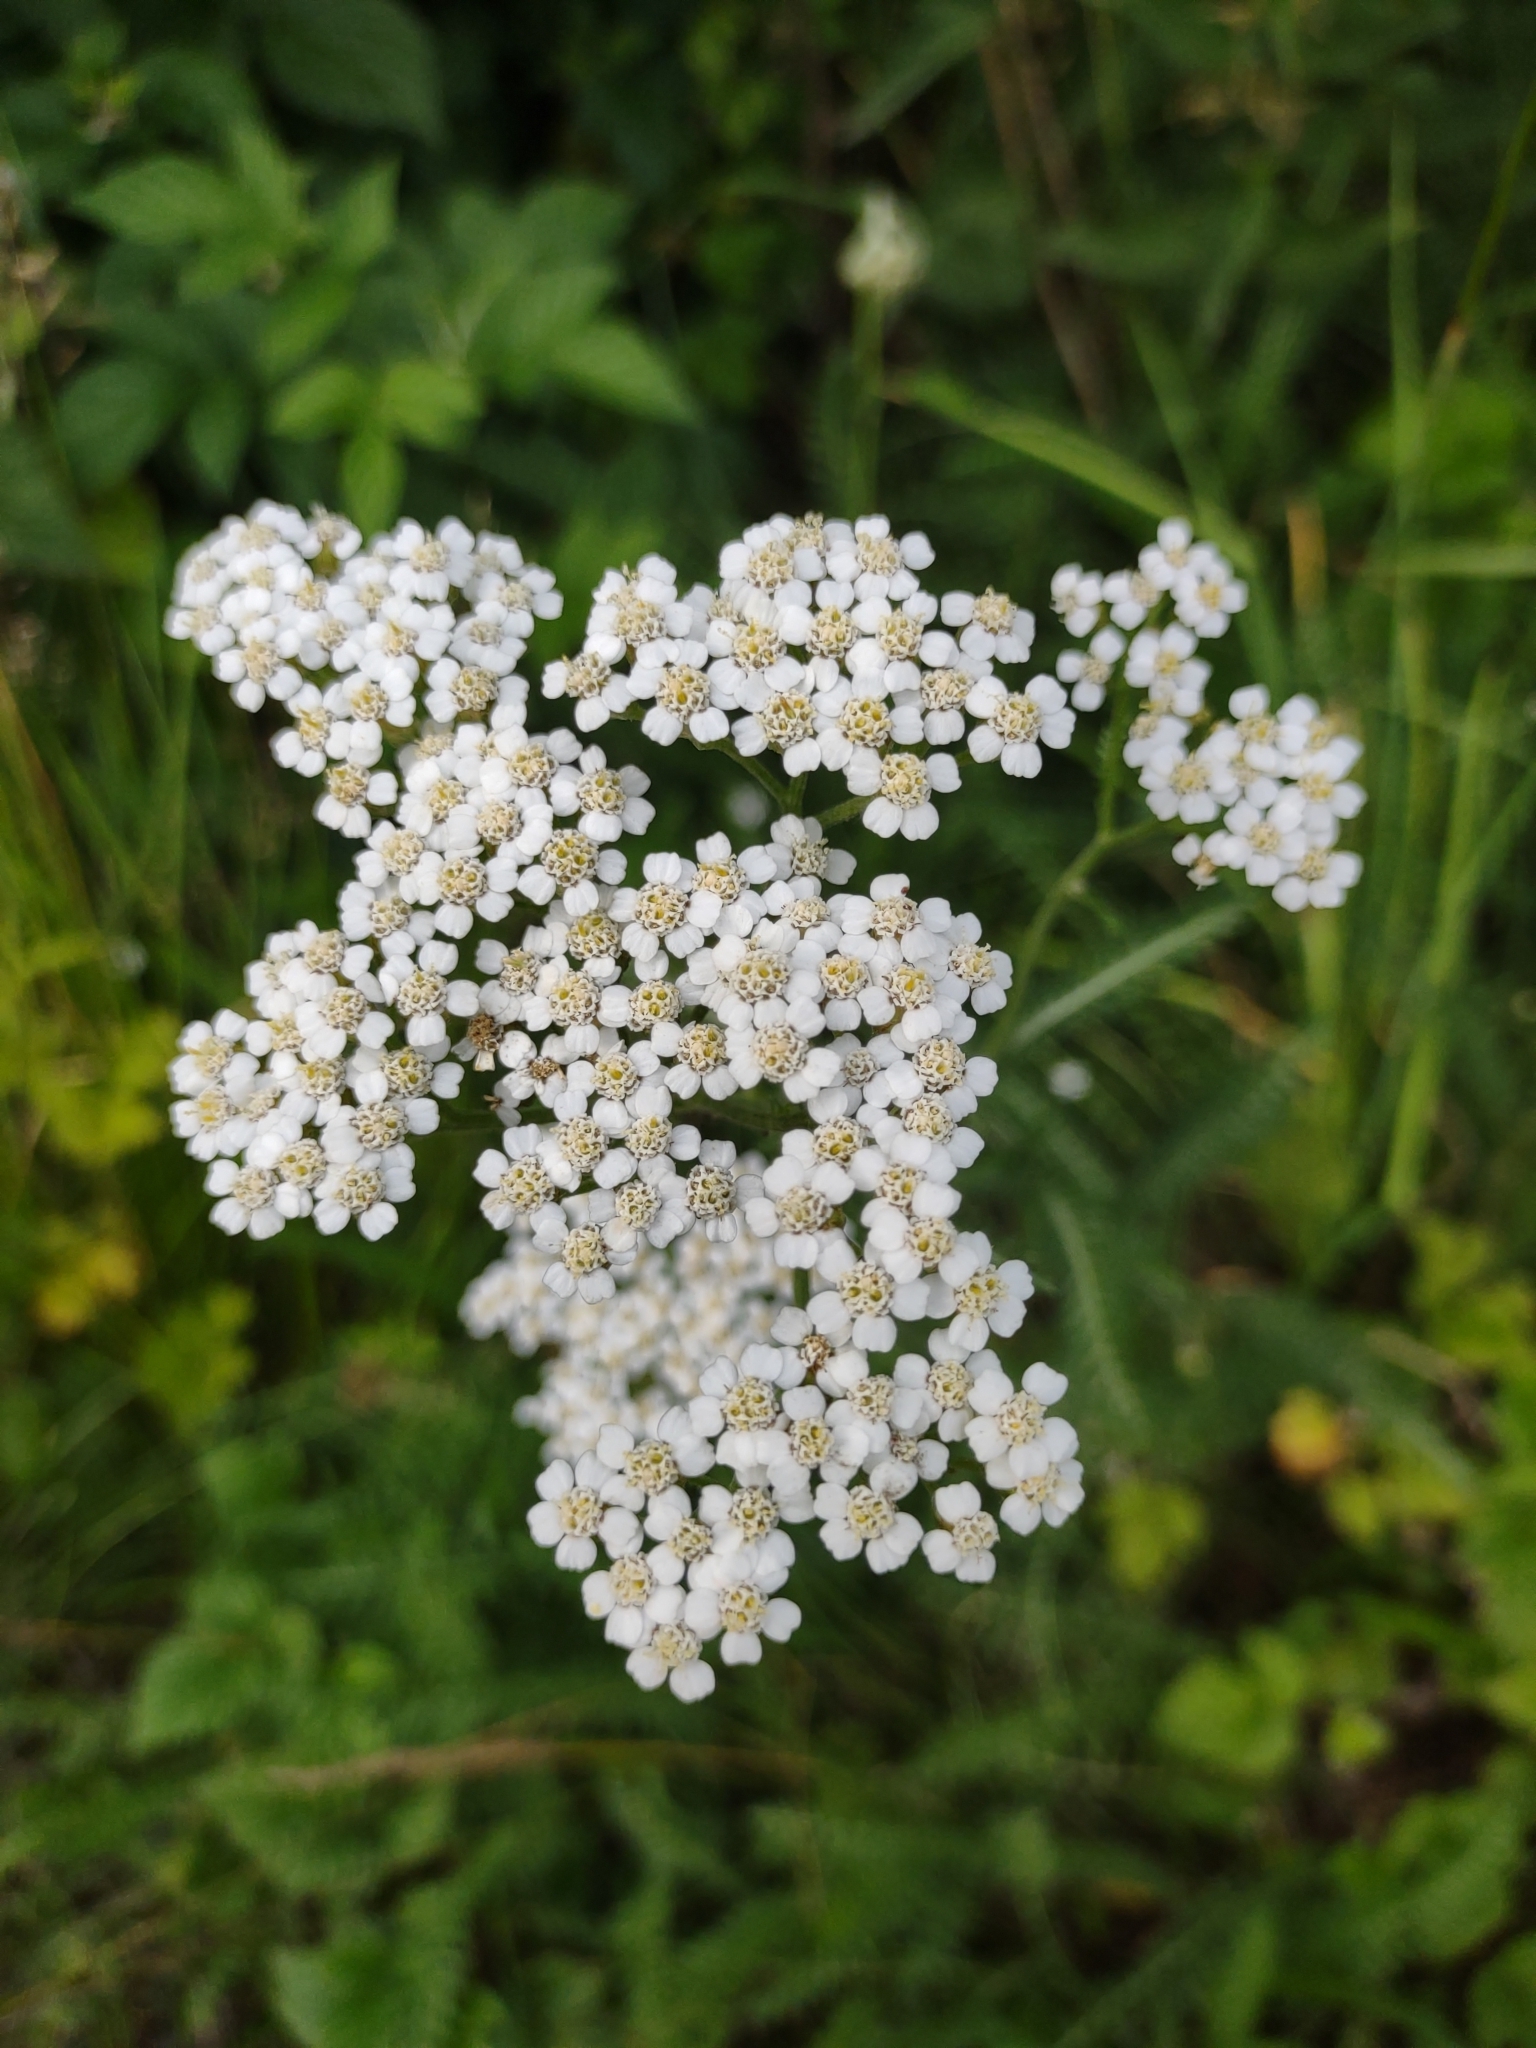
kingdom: Plantae
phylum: Tracheophyta
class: Magnoliopsida
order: Asterales
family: Asteraceae
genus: Achillea
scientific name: Achillea millefolium
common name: Yarrow
